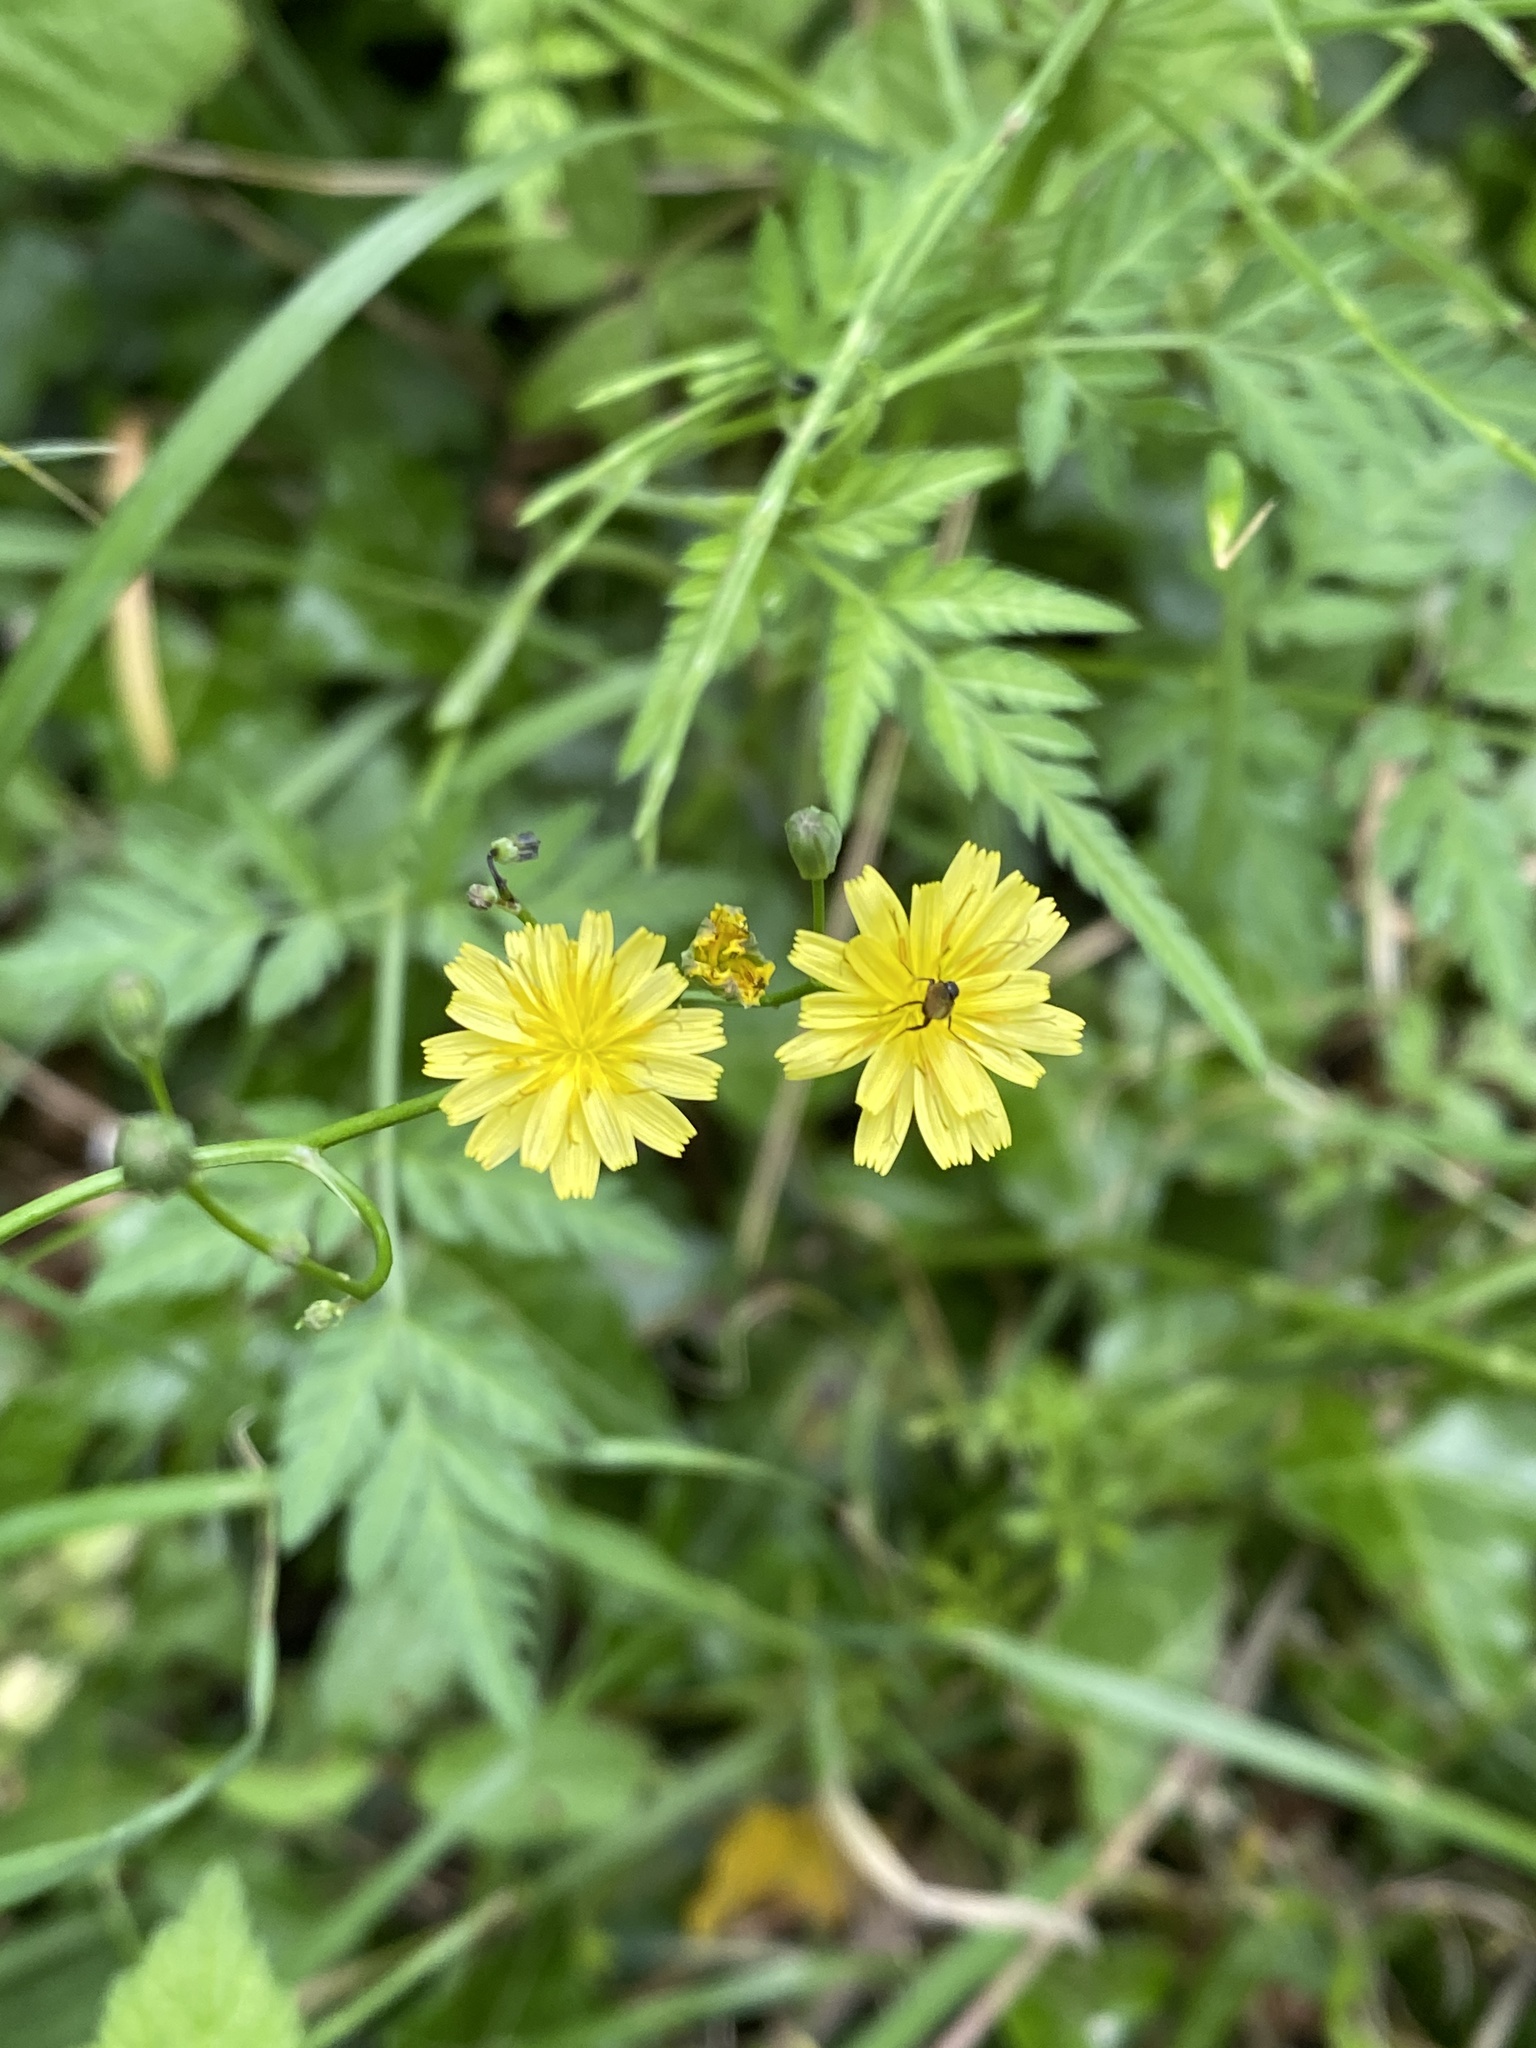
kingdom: Plantae
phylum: Tracheophyta
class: Magnoliopsida
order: Asterales
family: Asteraceae
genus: Lapsana
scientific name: Lapsana communis
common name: Nipplewort
